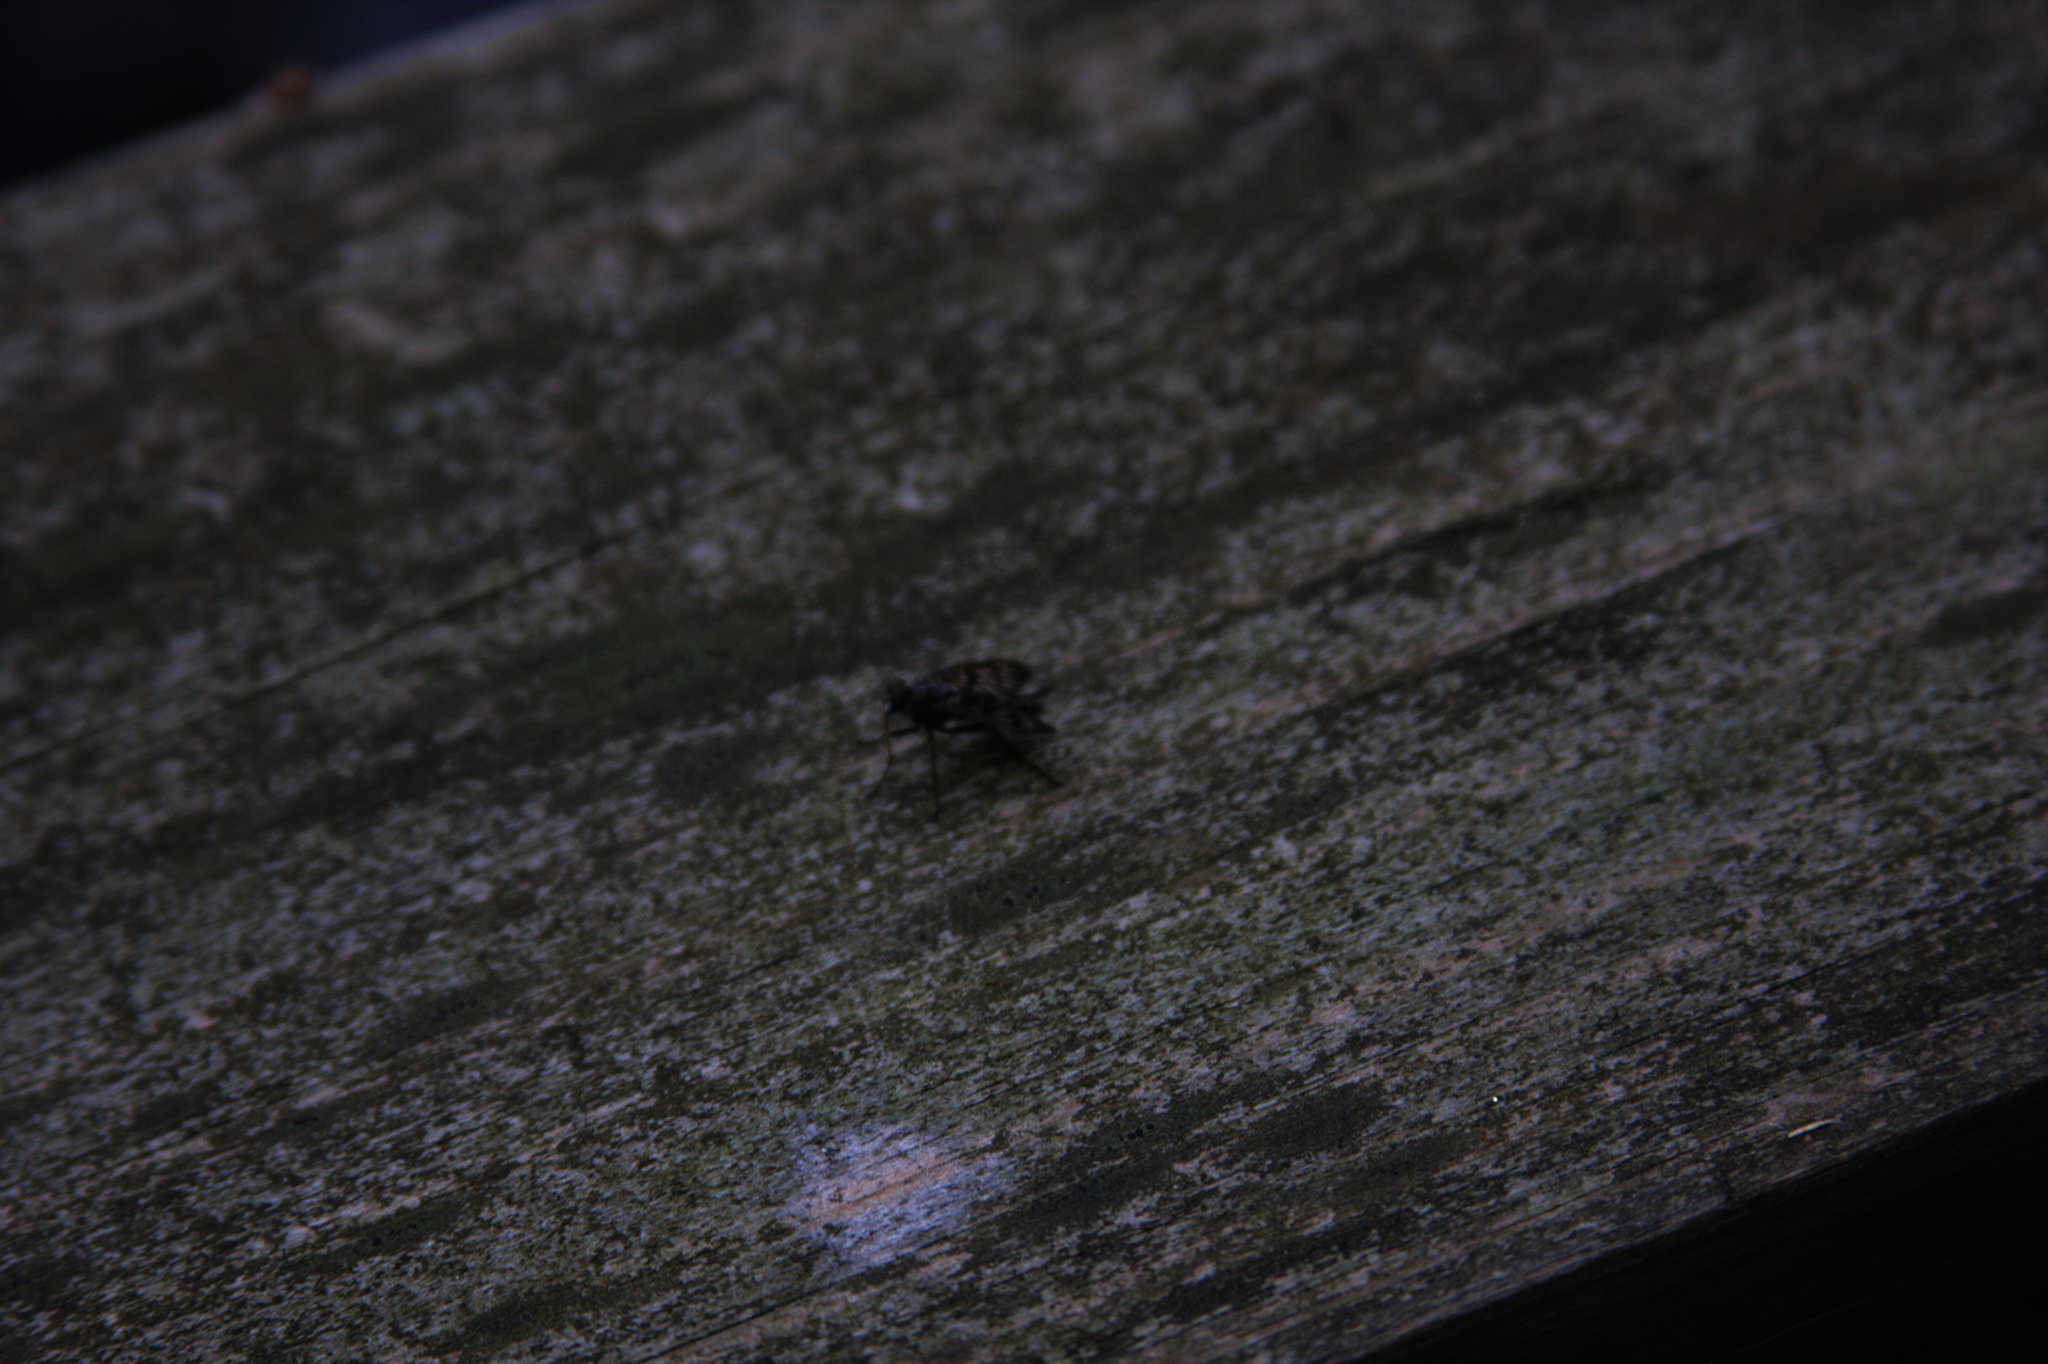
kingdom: Animalia
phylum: Arthropoda
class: Insecta
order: Diptera
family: Rhagionidae
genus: Rhagio
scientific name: Rhagio mystaceus
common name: Common snipe fly
